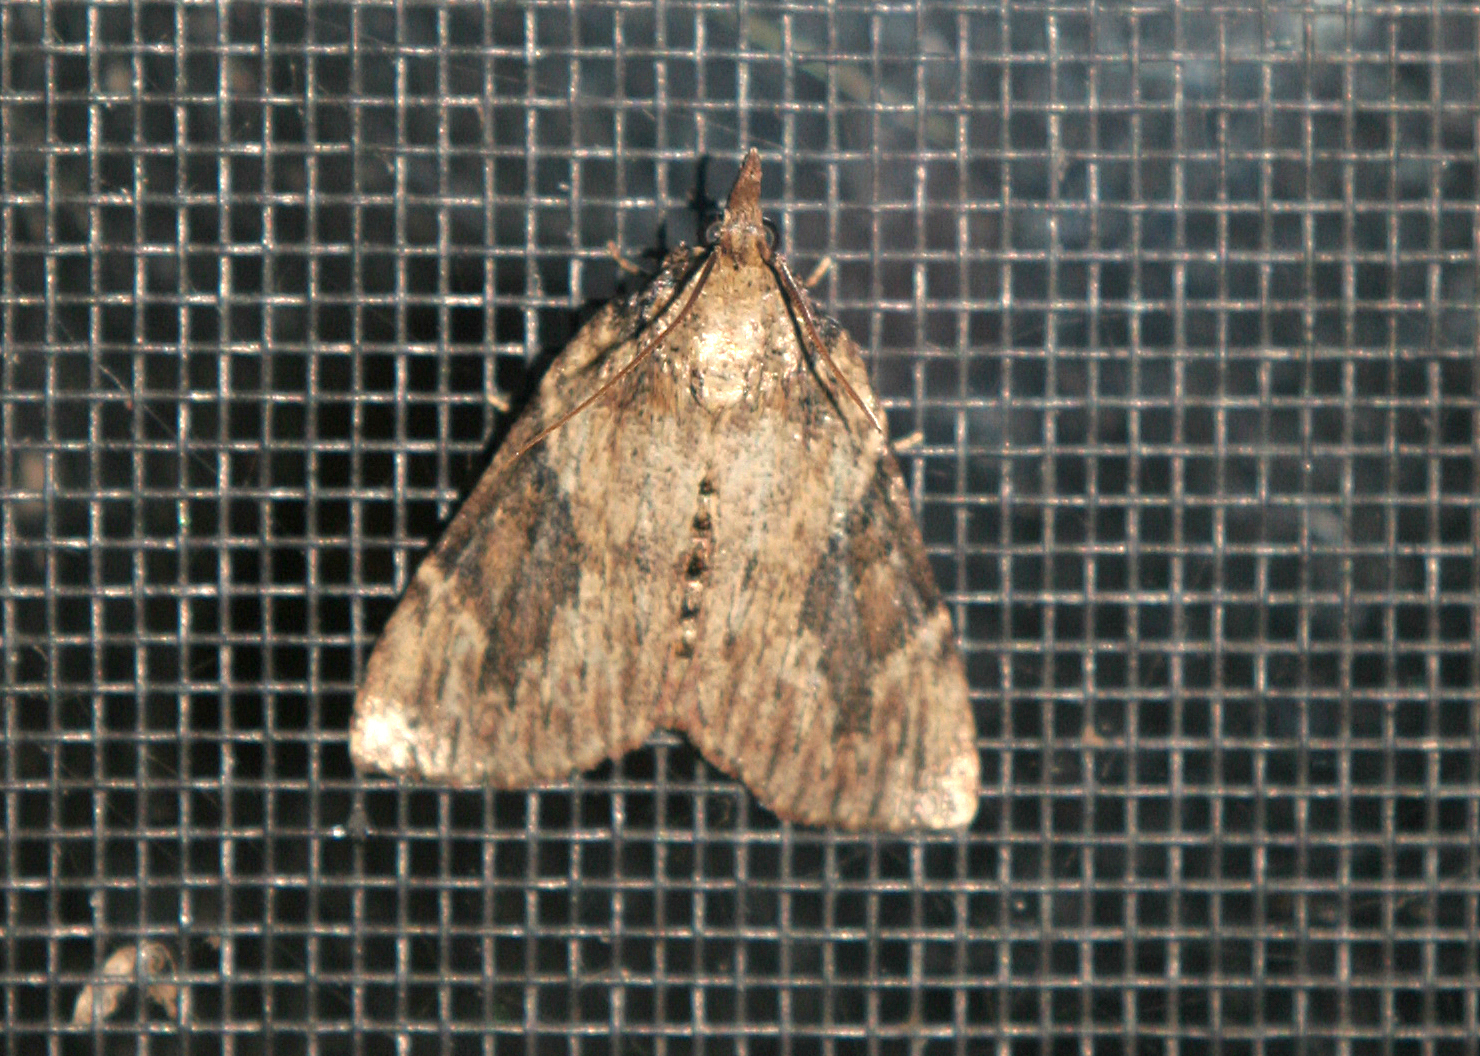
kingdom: Animalia
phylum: Arthropoda
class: Insecta
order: Lepidoptera
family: Pyralidae
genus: Omphalocera
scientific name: Omphalocera cariosa
